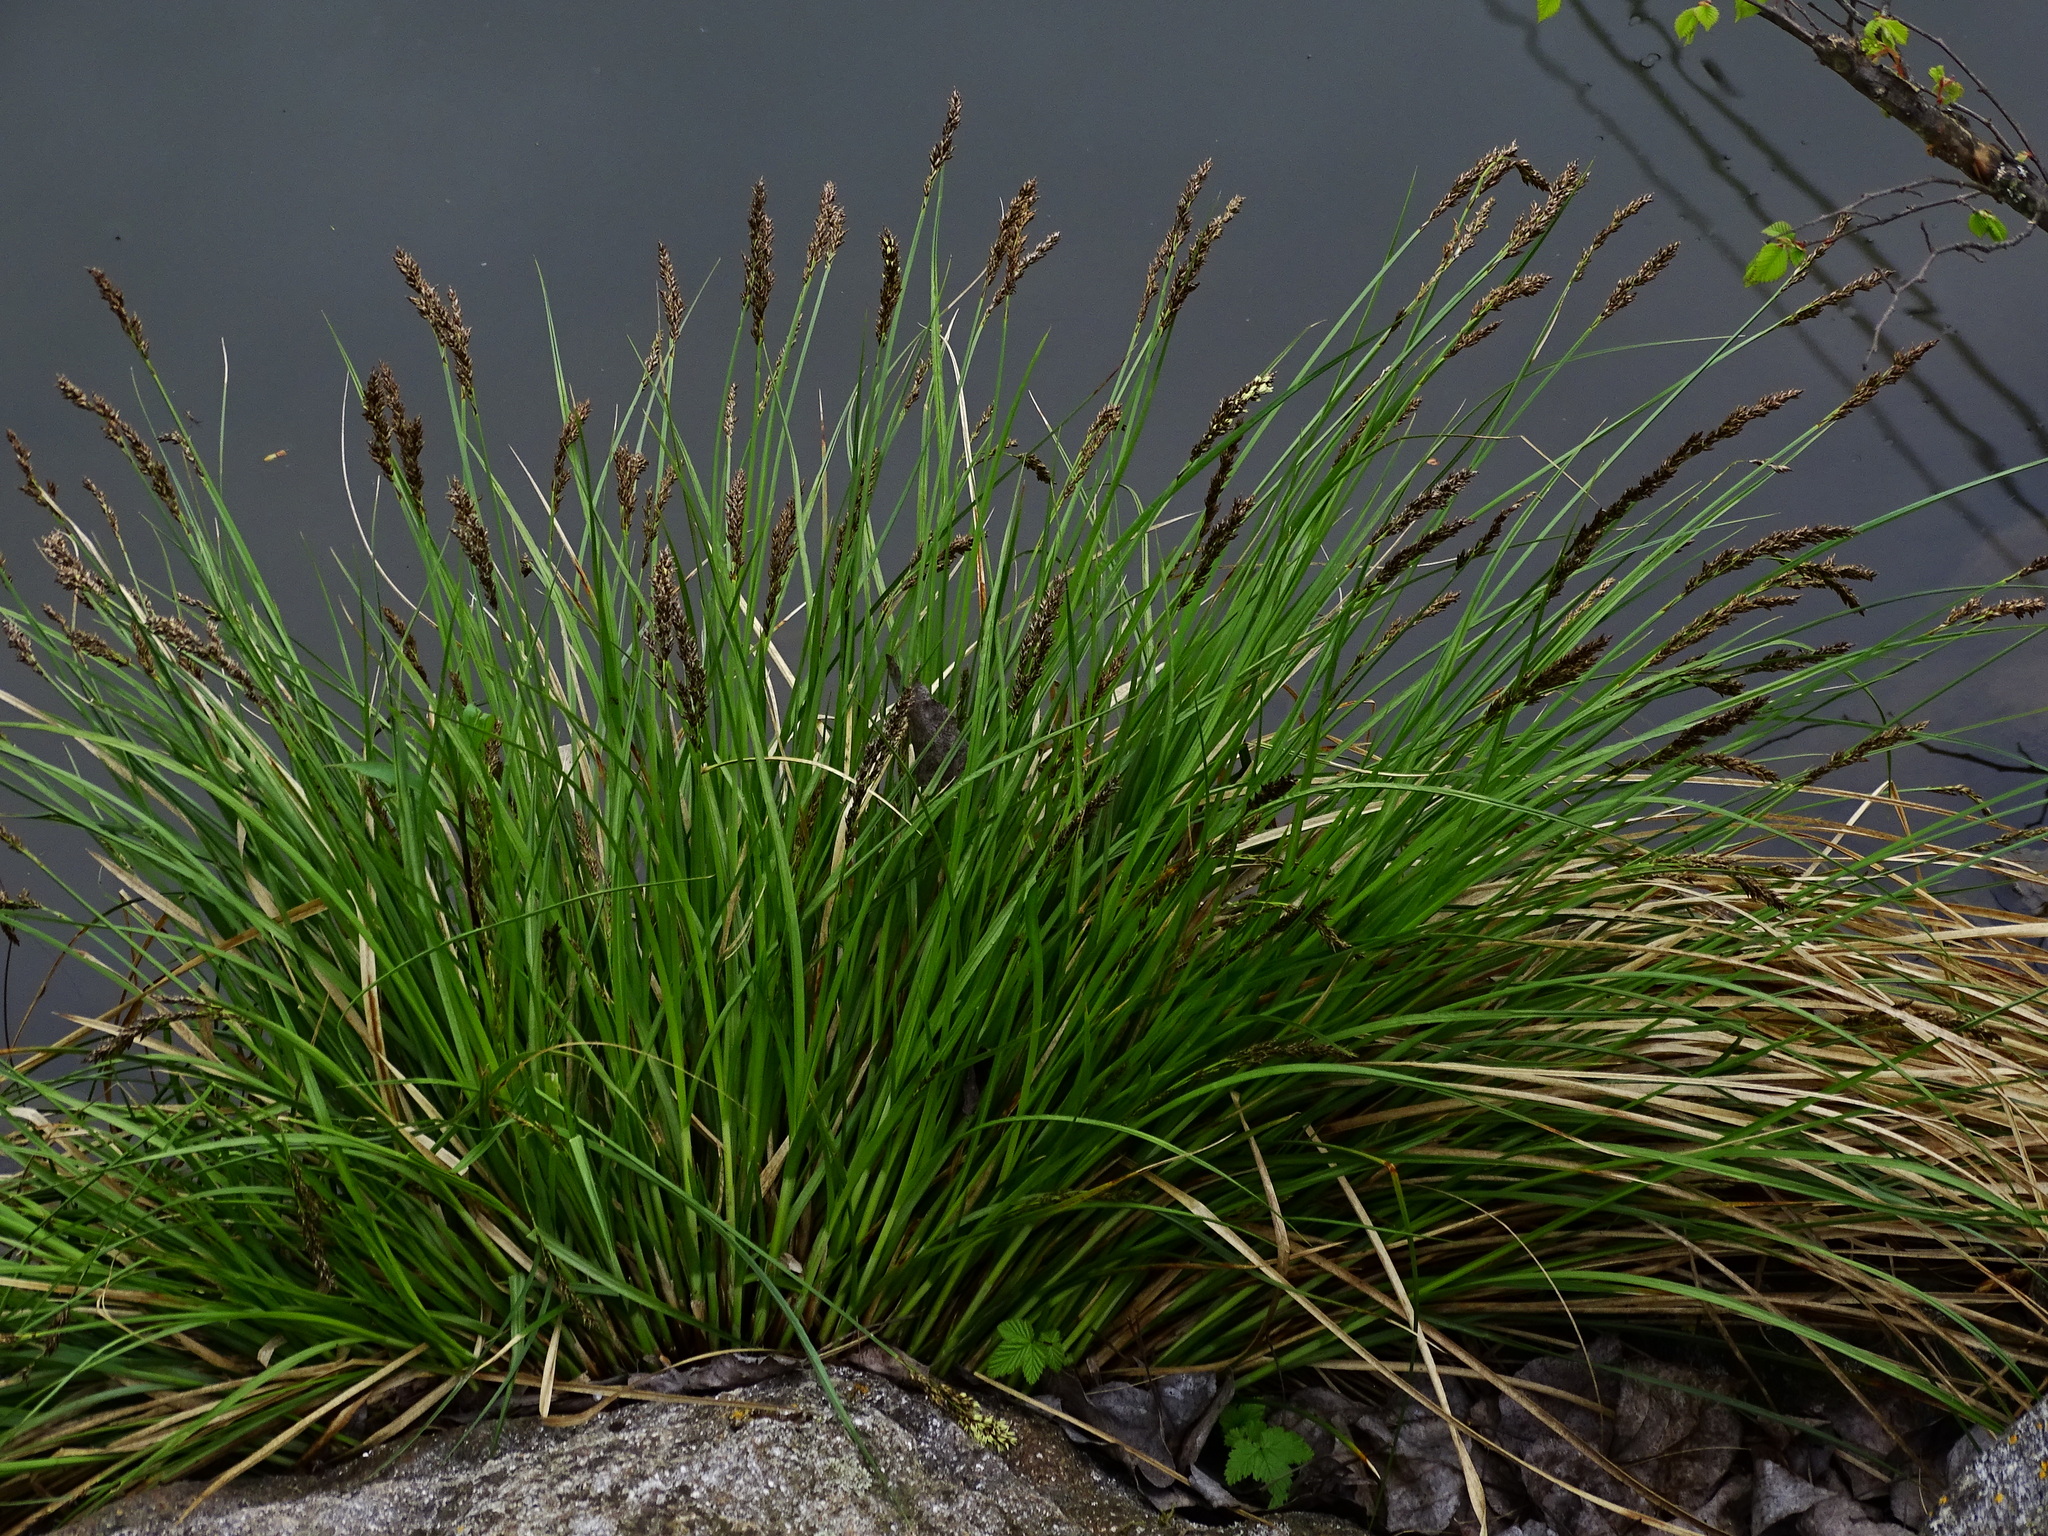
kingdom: Plantae
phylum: Tracheophyta
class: Liliopsida
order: Poales
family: Cyperaceae
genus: Carex
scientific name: Carex paniculata
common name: Greater tussock-sedge
